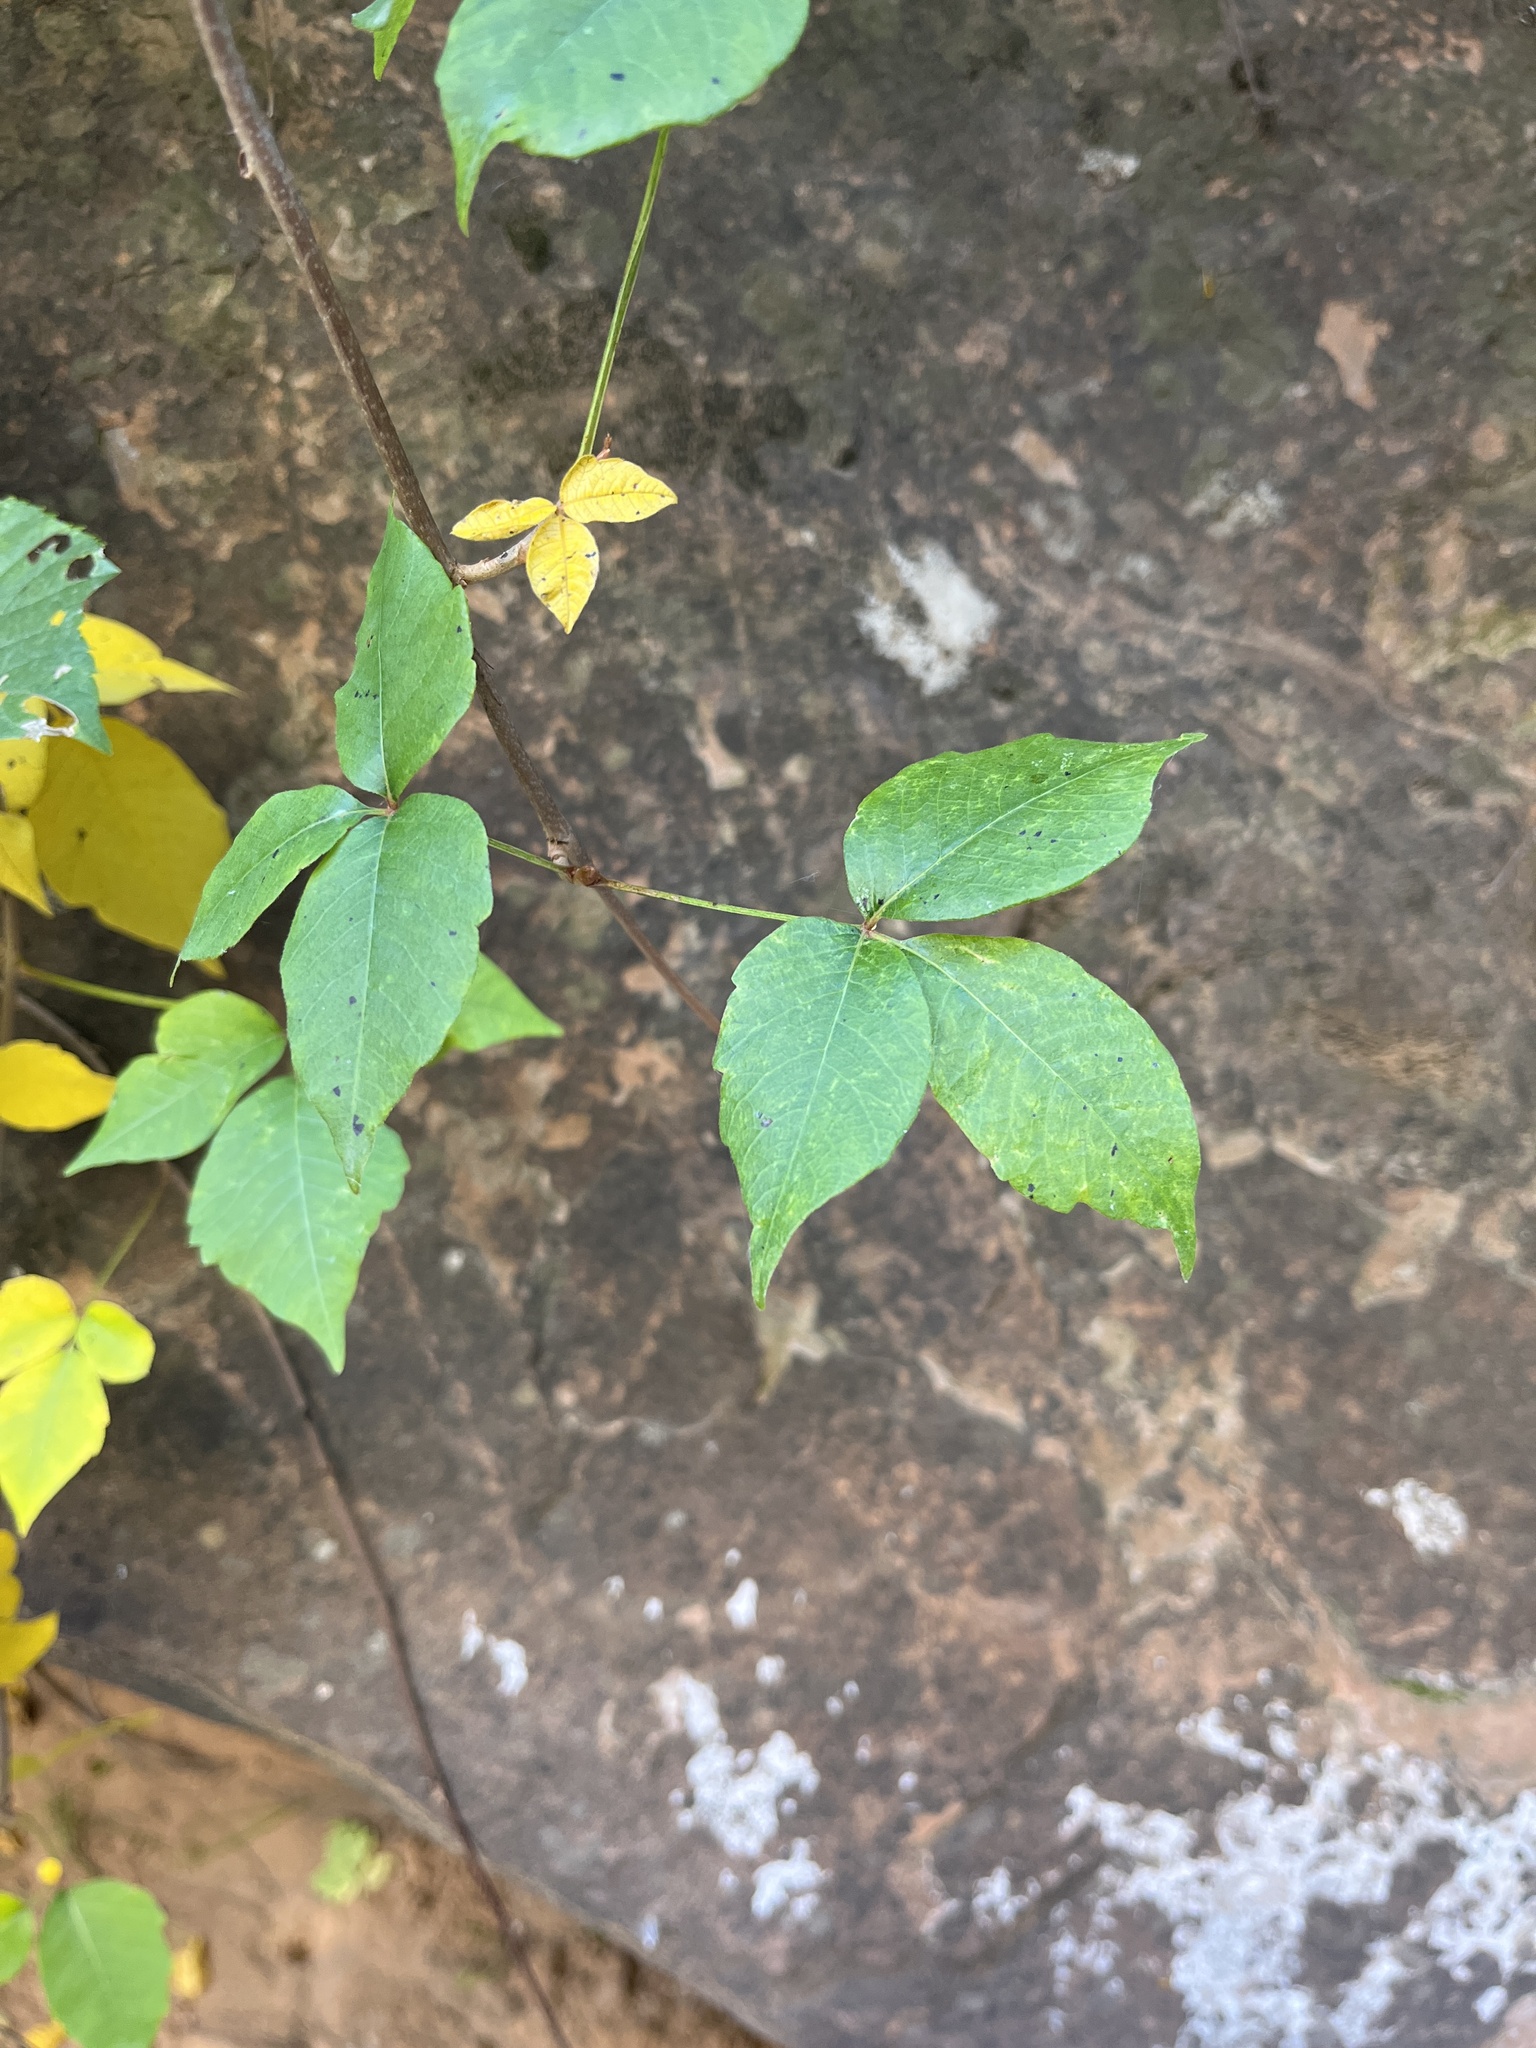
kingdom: Plantae
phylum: Tracheophyta
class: Magnoliopsida
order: Sapindales
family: Anacardiaceae
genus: Toxicodendron
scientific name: Toxicodendron rydbergii
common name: Rydberg's poison-ivy
